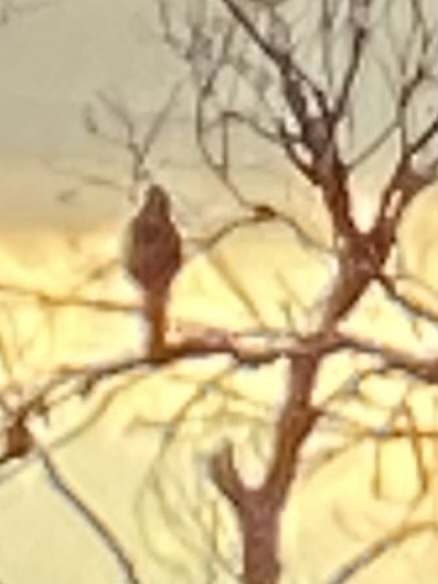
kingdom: Animalia
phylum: Chordata
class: Aves
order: Accipitriformes
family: Accipitridae
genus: Accipiter
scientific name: Accipiter cooperii
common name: Cooper's hawk
